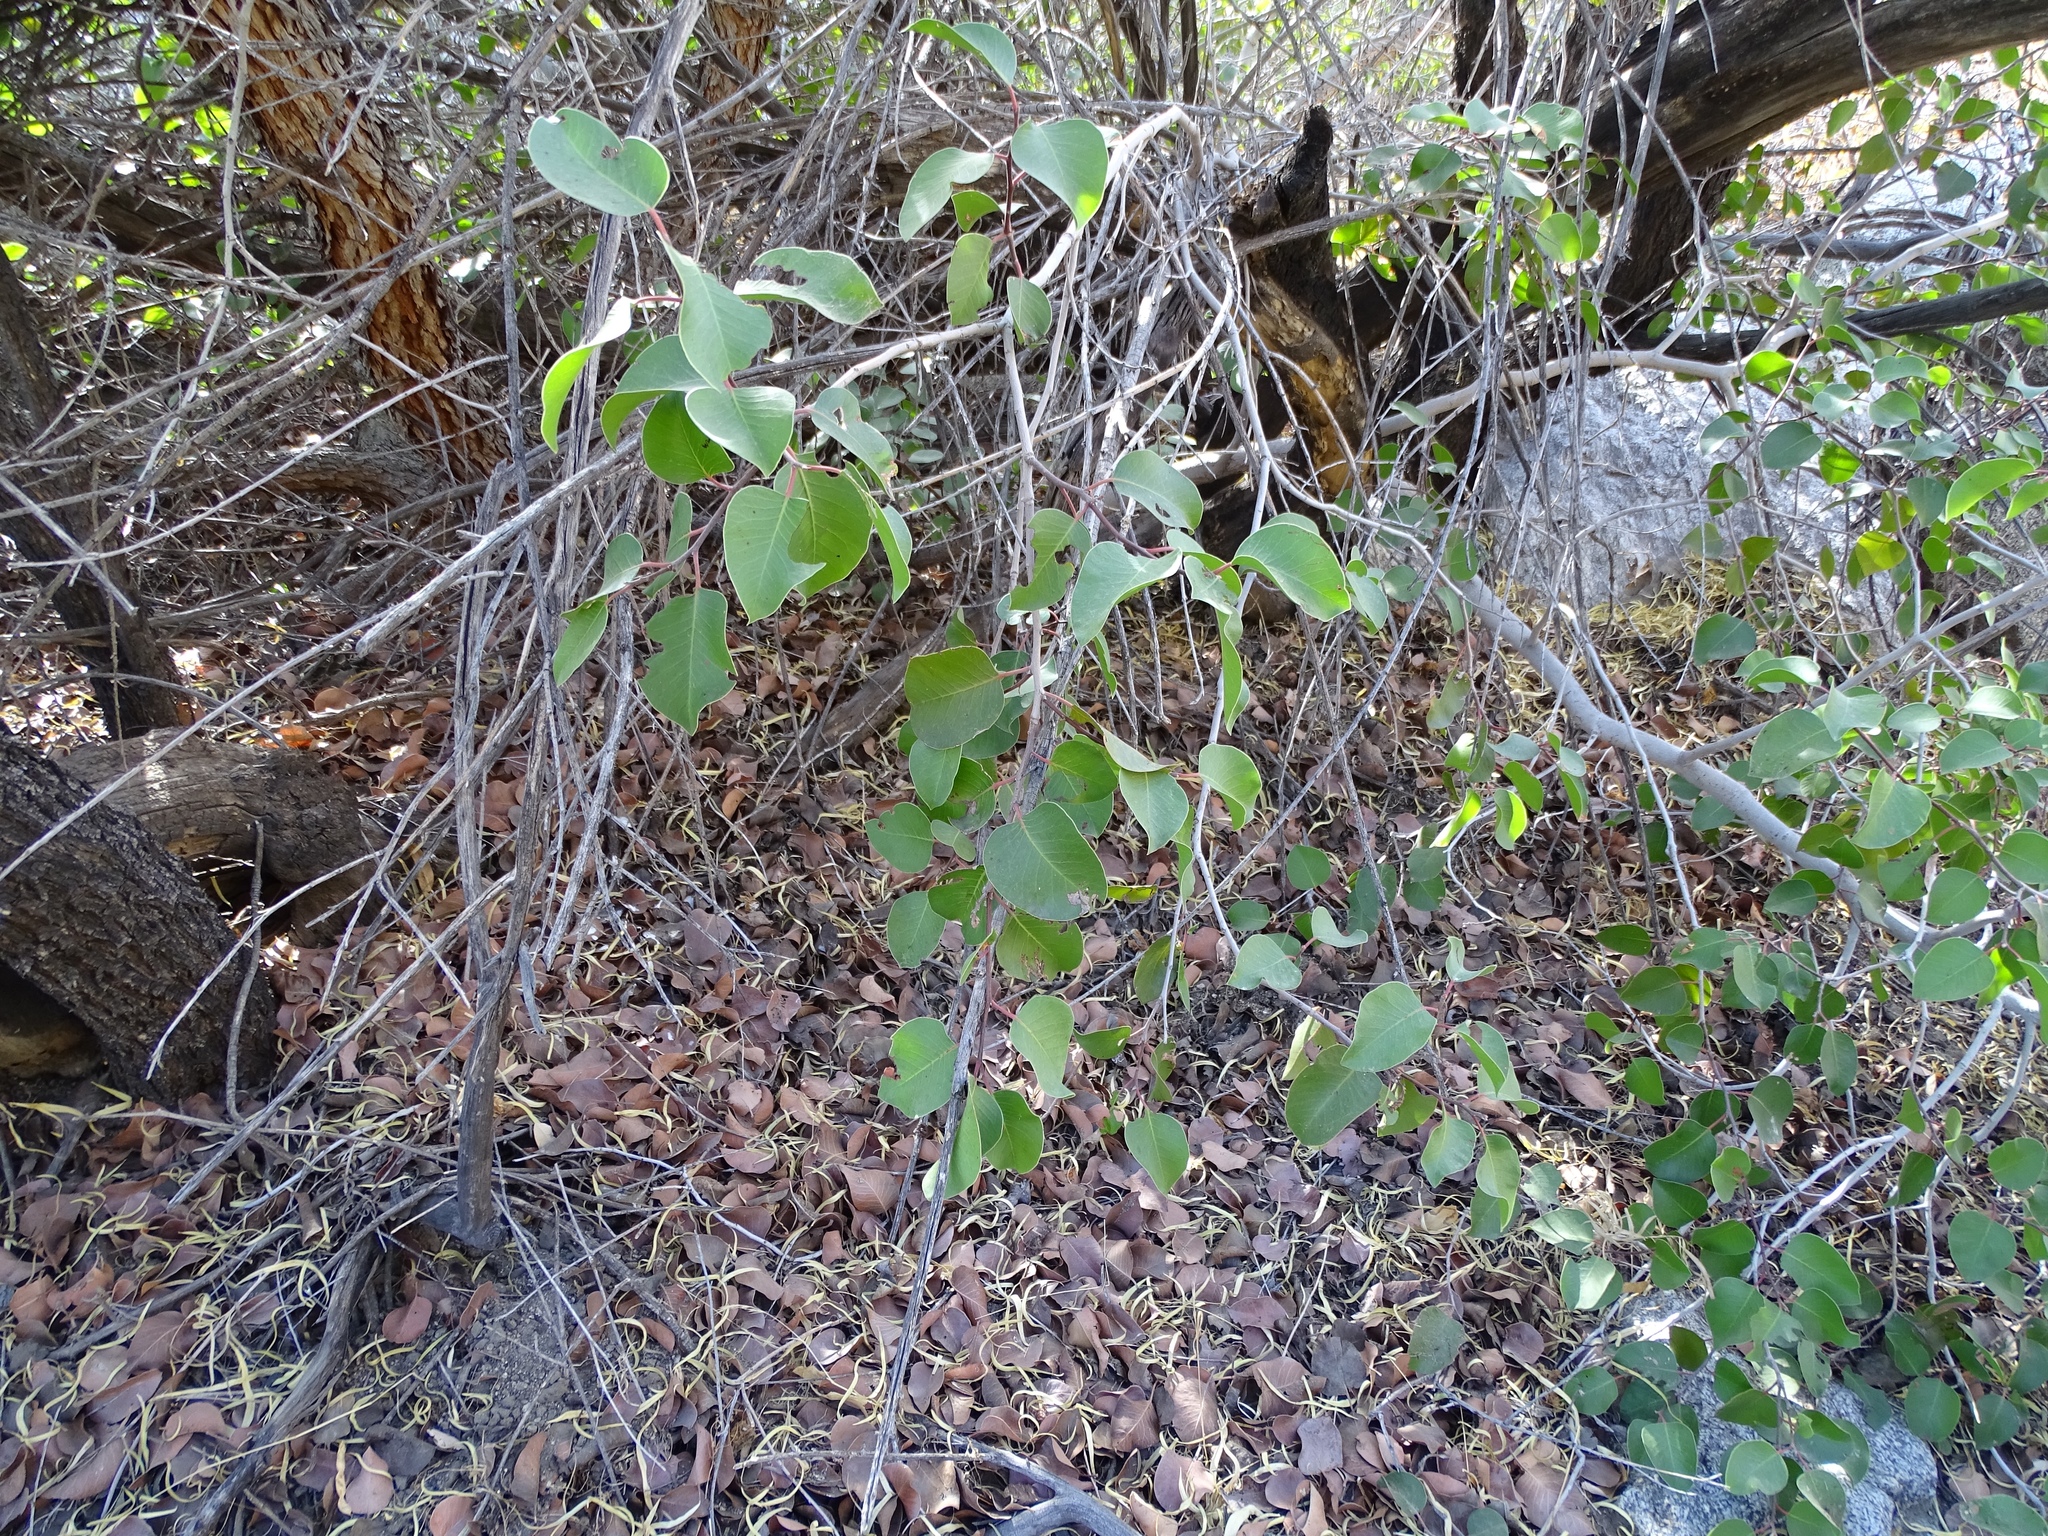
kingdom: Plantae
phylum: Tracheophyta
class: Magnoliopsida
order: Sapindales
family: Anacardiaceae
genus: Rhus
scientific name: Rhus ovata
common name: Sugar sumac
